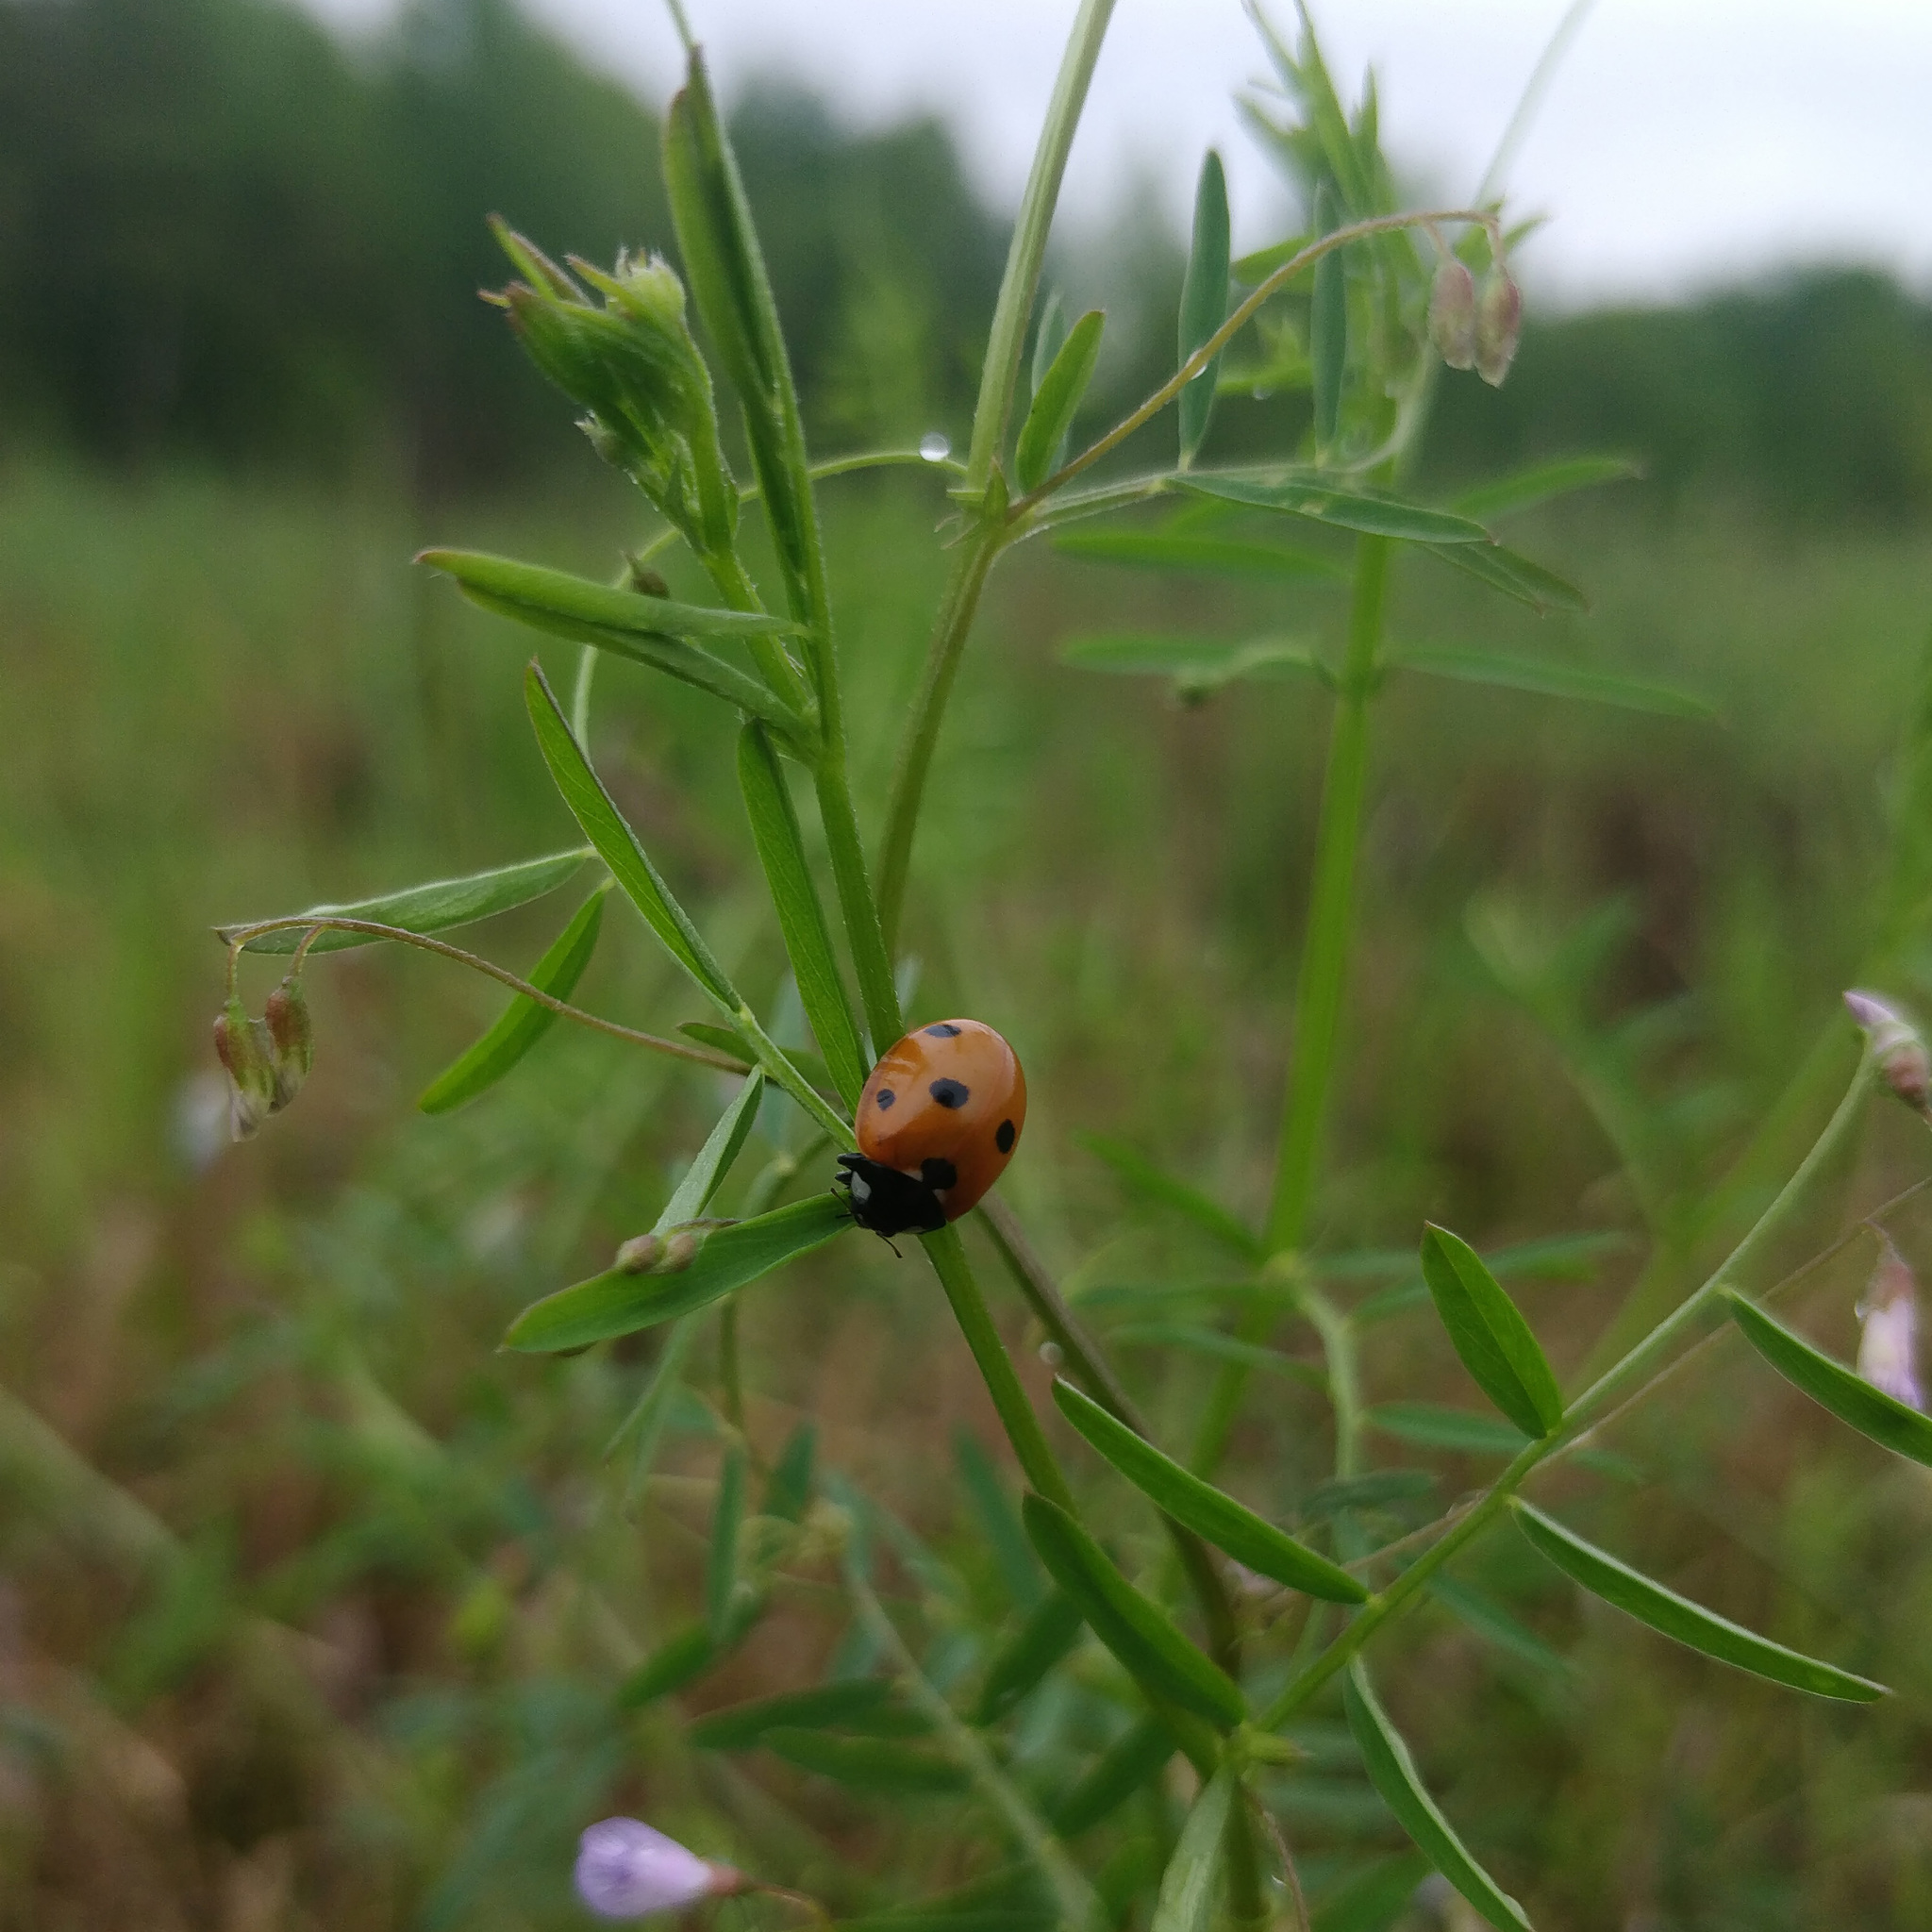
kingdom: Animalia
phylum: Arthropoda
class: Insecta
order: Coleoptera
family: Coccinellidae
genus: Coccinella
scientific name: Coccinella septempunctata
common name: Sevenspotted lady beetle
